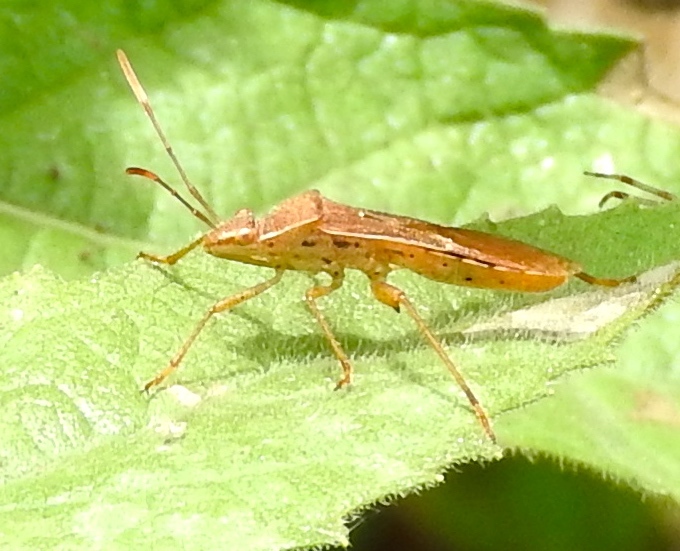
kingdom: Animalia
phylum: Arthropoda
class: Insecta
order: Hemiptera
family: Alydidae
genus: Burtinus
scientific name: Burtinus notatipennis
